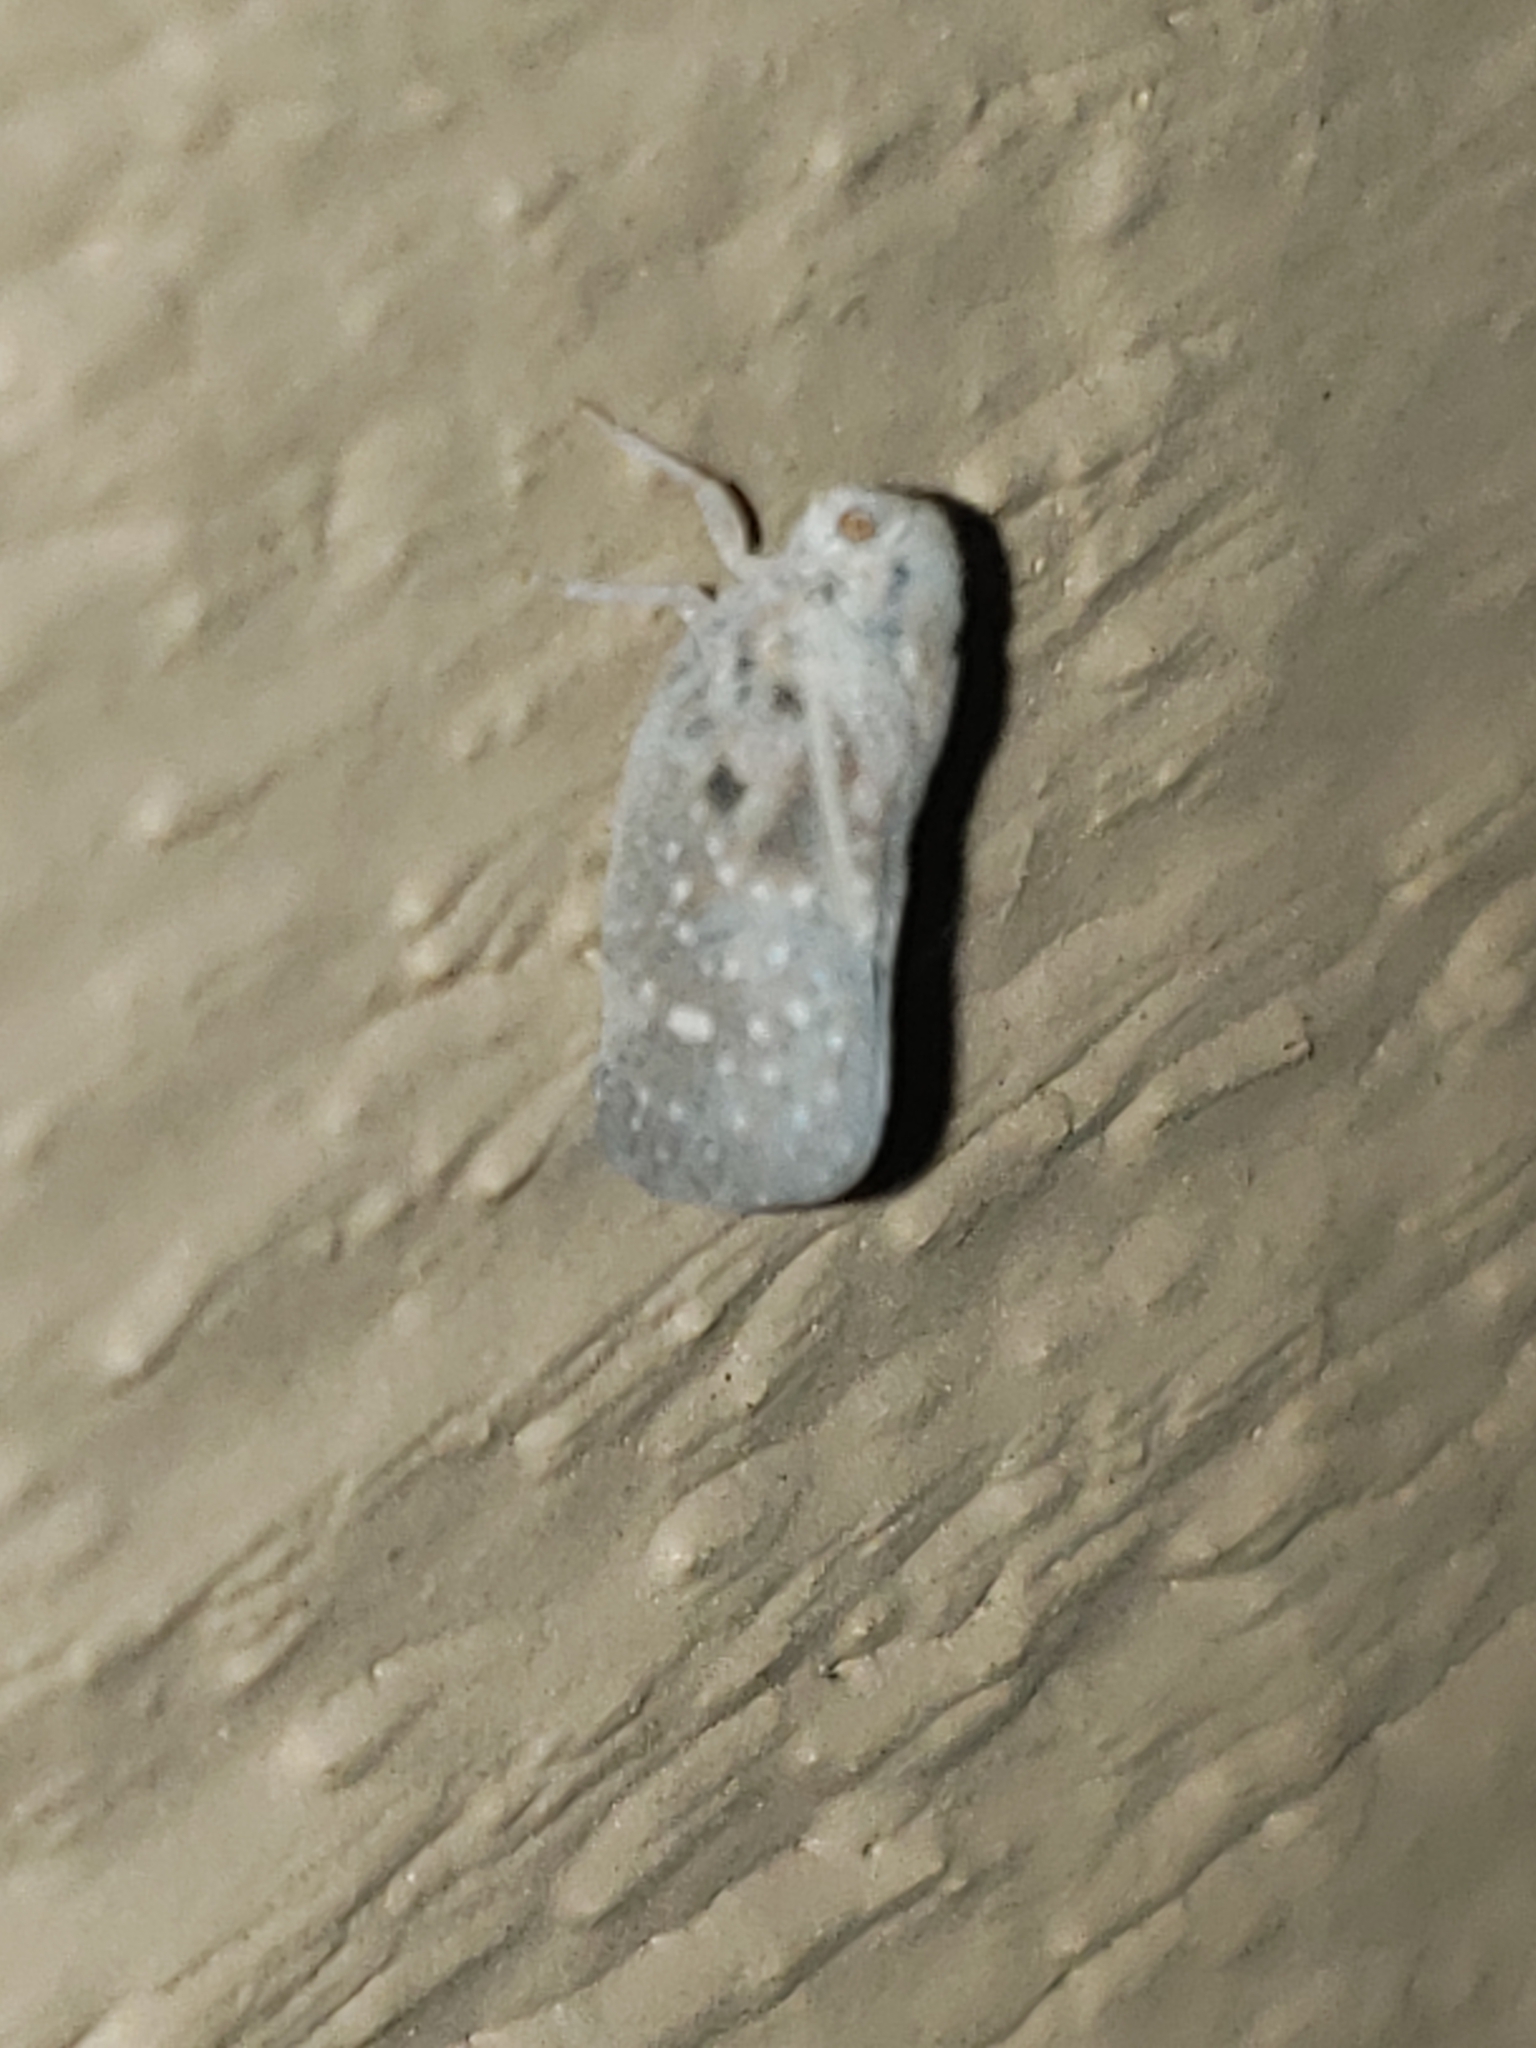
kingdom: Animalia
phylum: Arthropoda
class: Insecta
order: Hemiptera
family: Flatidae
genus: Metcalfa
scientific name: Metcalfa pruinosa
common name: Citrus flatid planthopper
